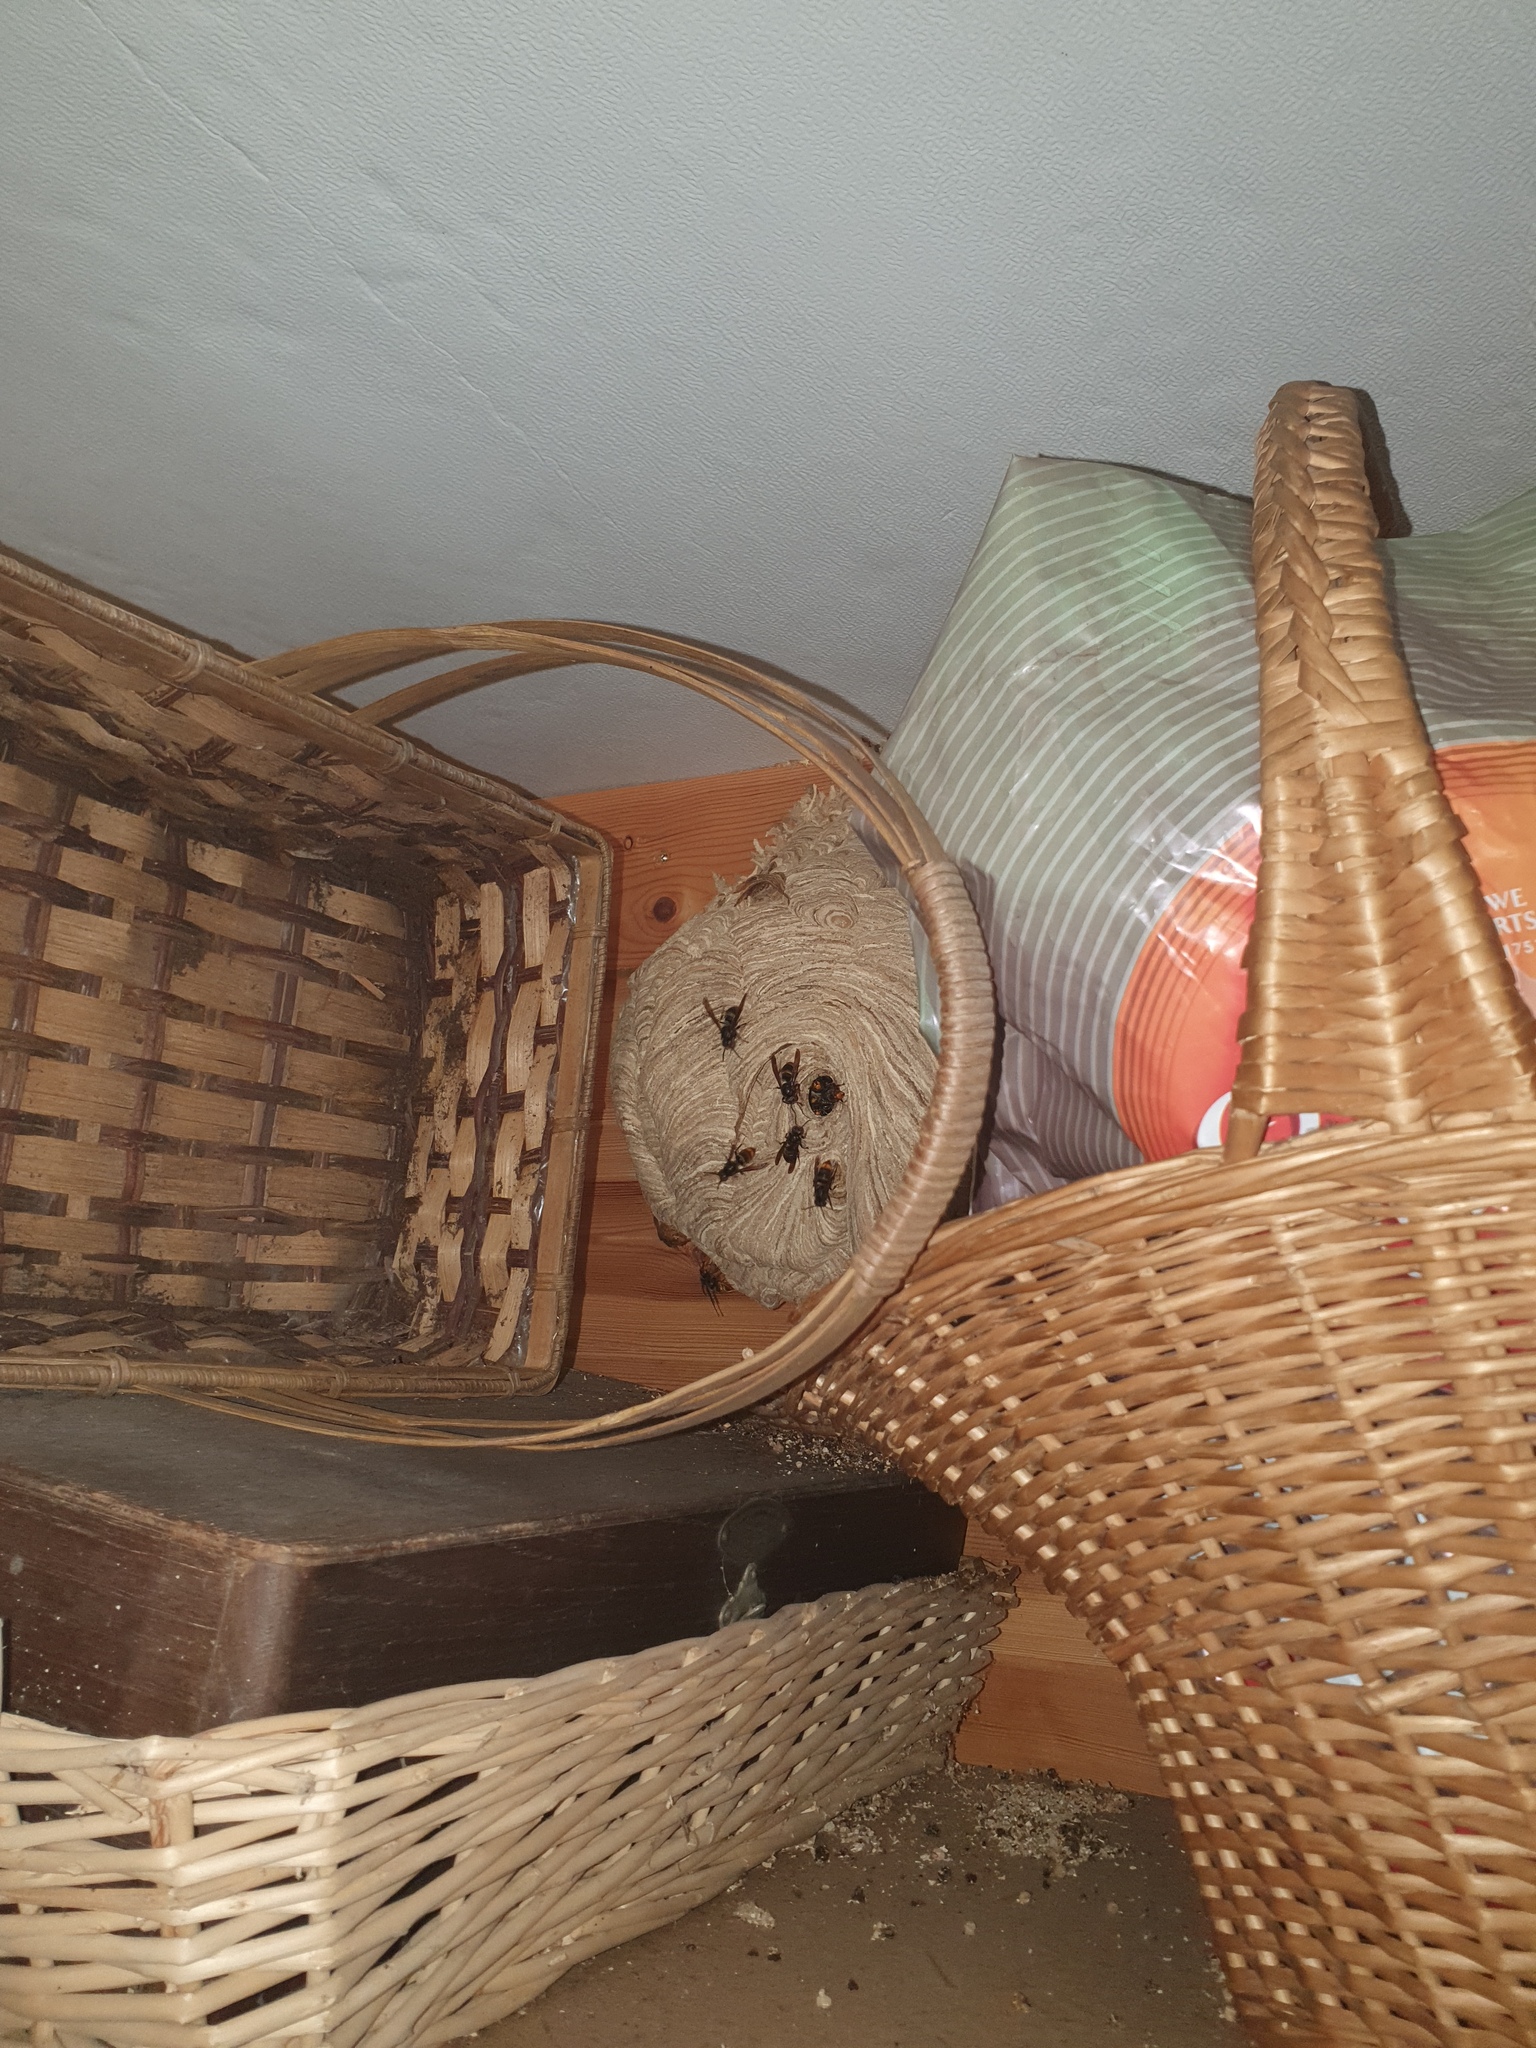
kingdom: Animalia
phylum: Arthropoda
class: Insecta
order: Hymenoptera
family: Vespidae
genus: Vespa
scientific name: Vespa velutina
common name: Asian hornet
